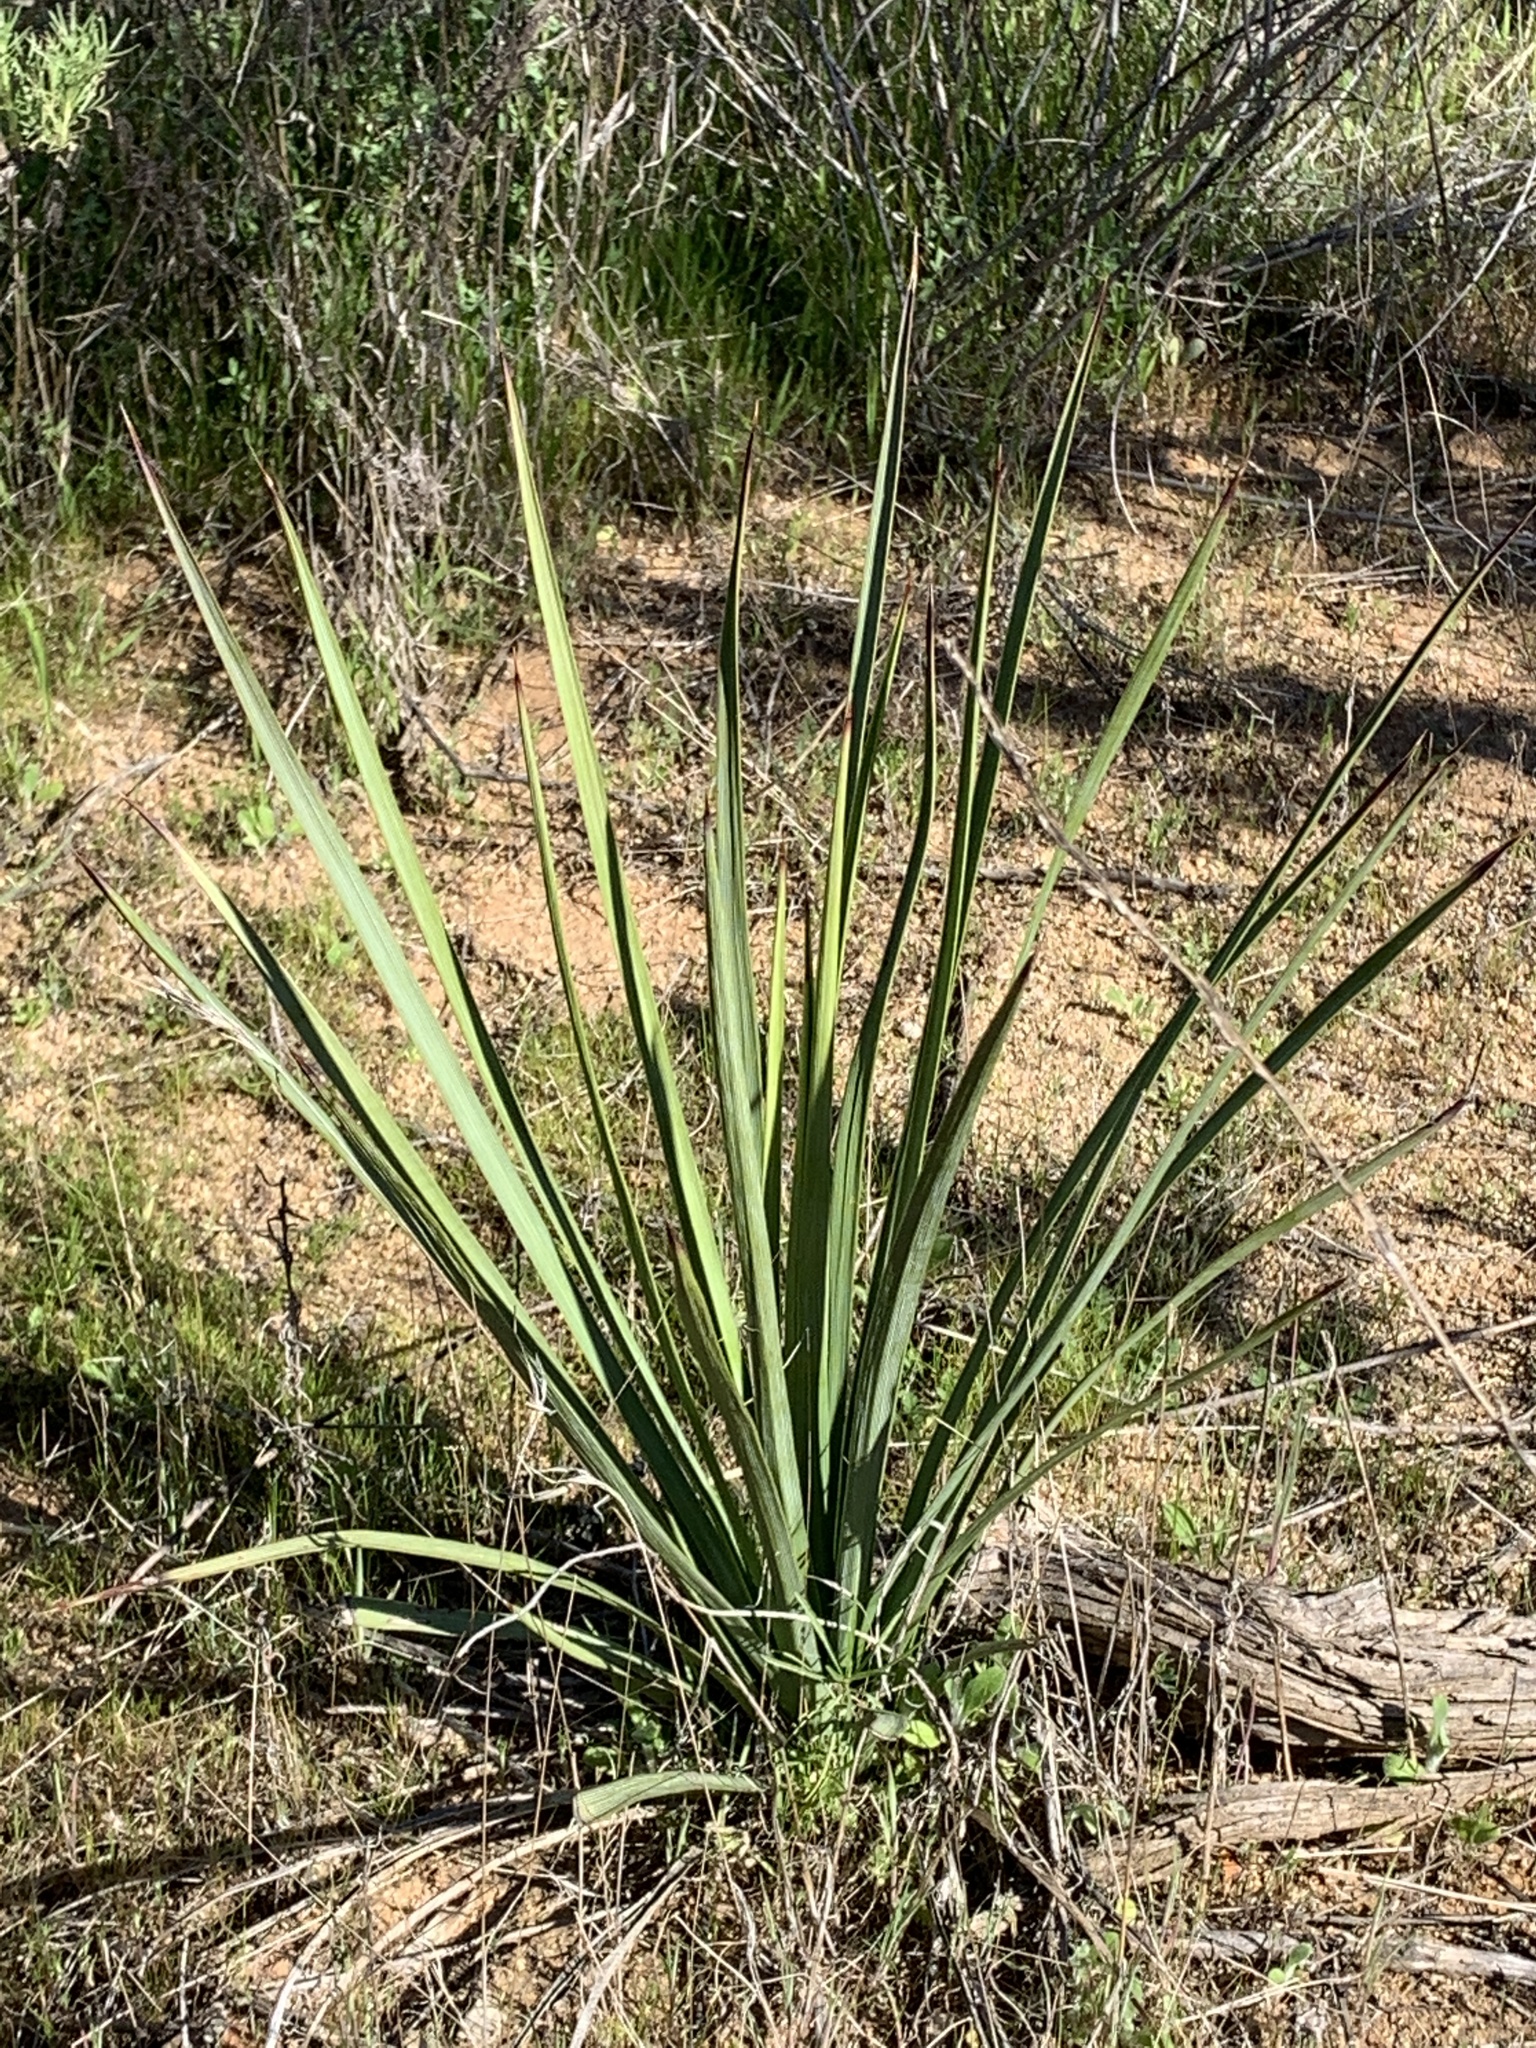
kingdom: Plantae
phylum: Tracheophyta
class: Liliopsida
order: Asparagales
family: Asparagaceae
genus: Hesperoyucca
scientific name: Hesperoyucca whipplei
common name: Our lord's-candle
